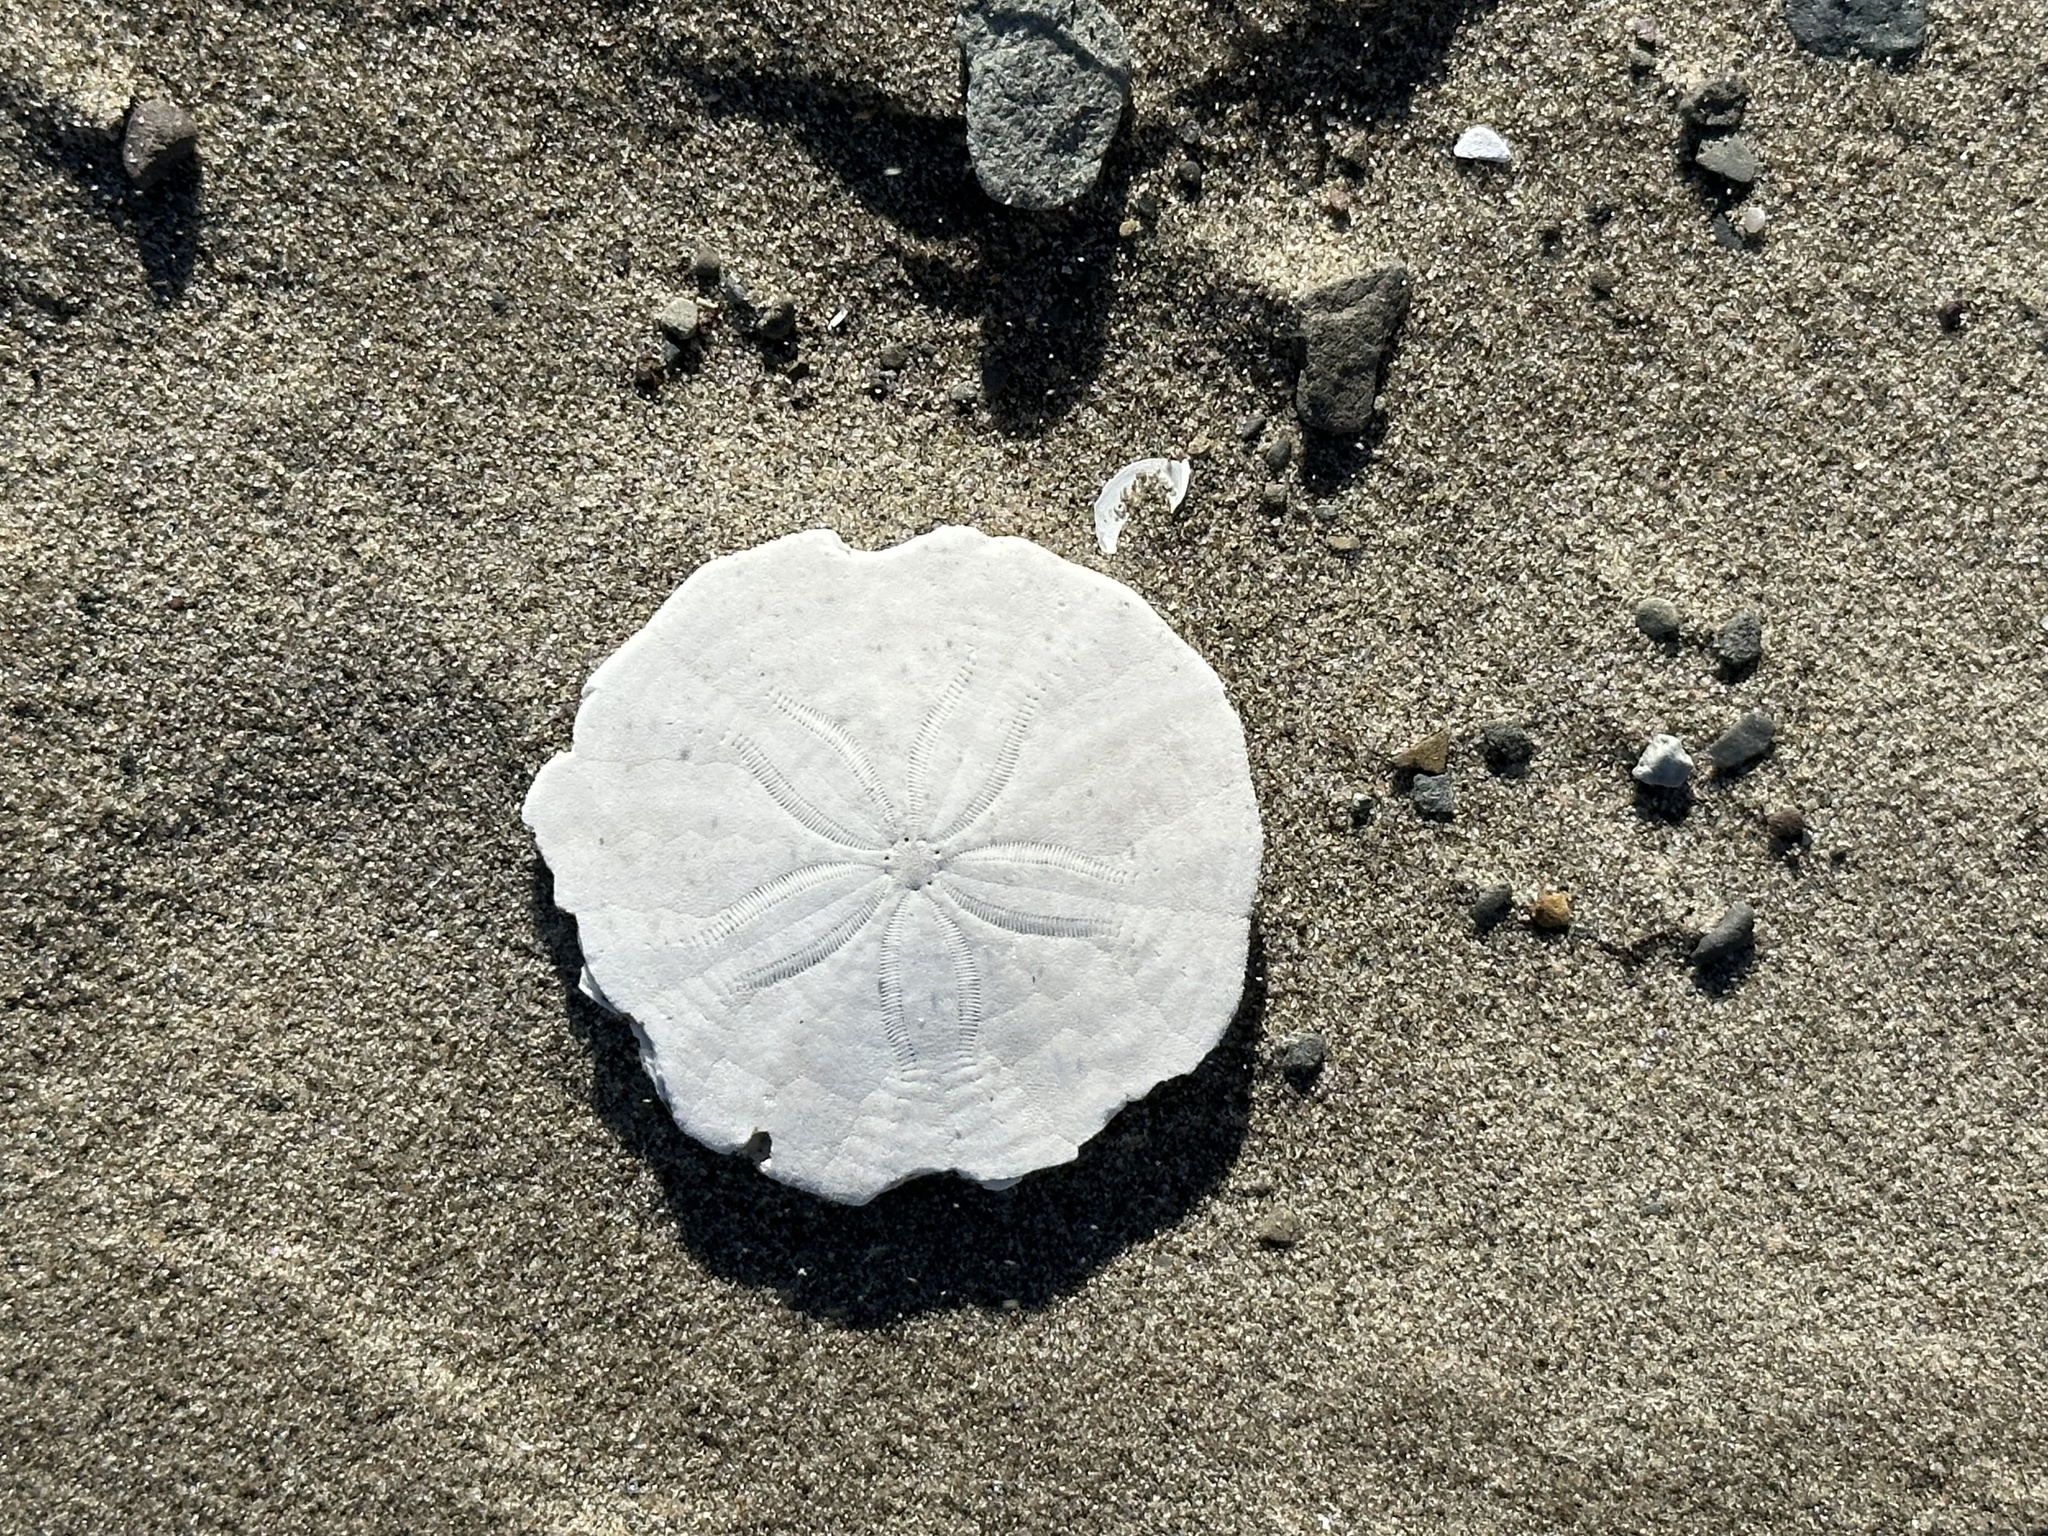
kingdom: Animalia
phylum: Echinodermata
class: Echinoidea
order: Echinolampadacea
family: Echinarachniidae
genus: Echinarachnius
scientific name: Echinarachnius parma
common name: Common sand dollar
